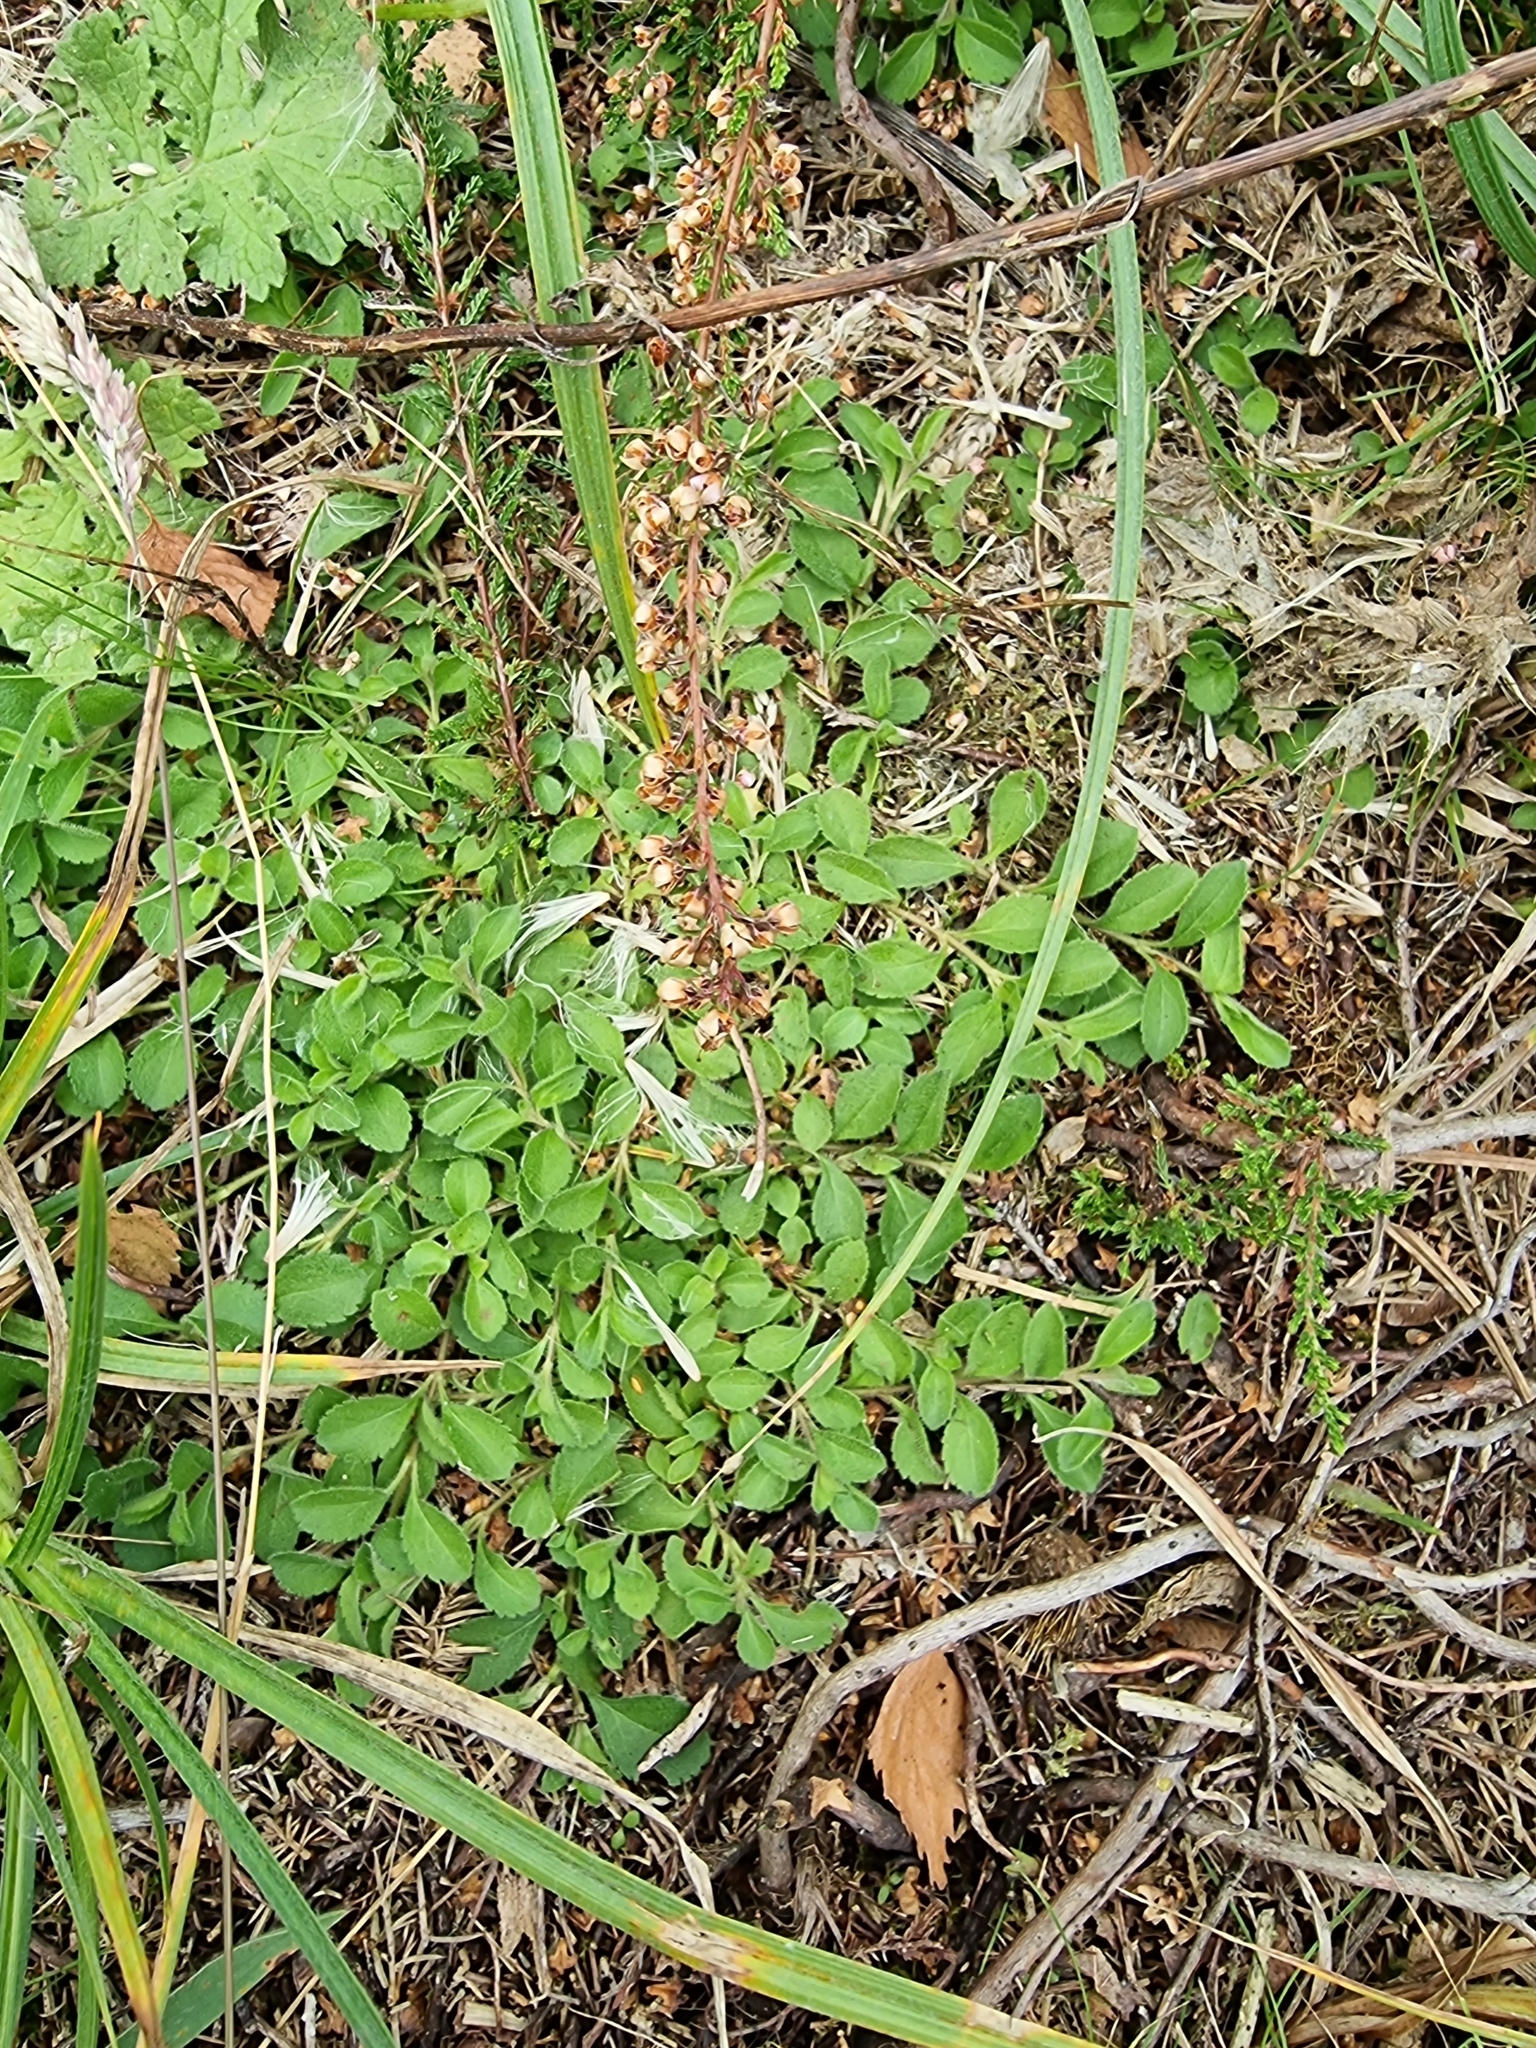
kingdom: Plantae
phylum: Tracheophyta
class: Magnoliopsida
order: Lamiales
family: Plantaginaceae
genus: Veronica
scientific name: Veronica officinalis
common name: Common speedwell
